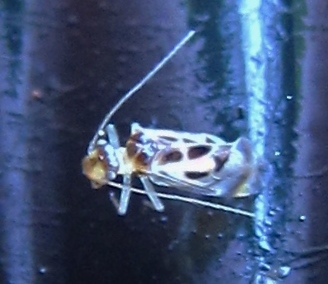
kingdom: Animalia
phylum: Arthropoda
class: Insecta
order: Psocodea
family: Stenopsocidae
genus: Graphopsocus
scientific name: Graphopsocus cruciatus
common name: Lizard bark louse
